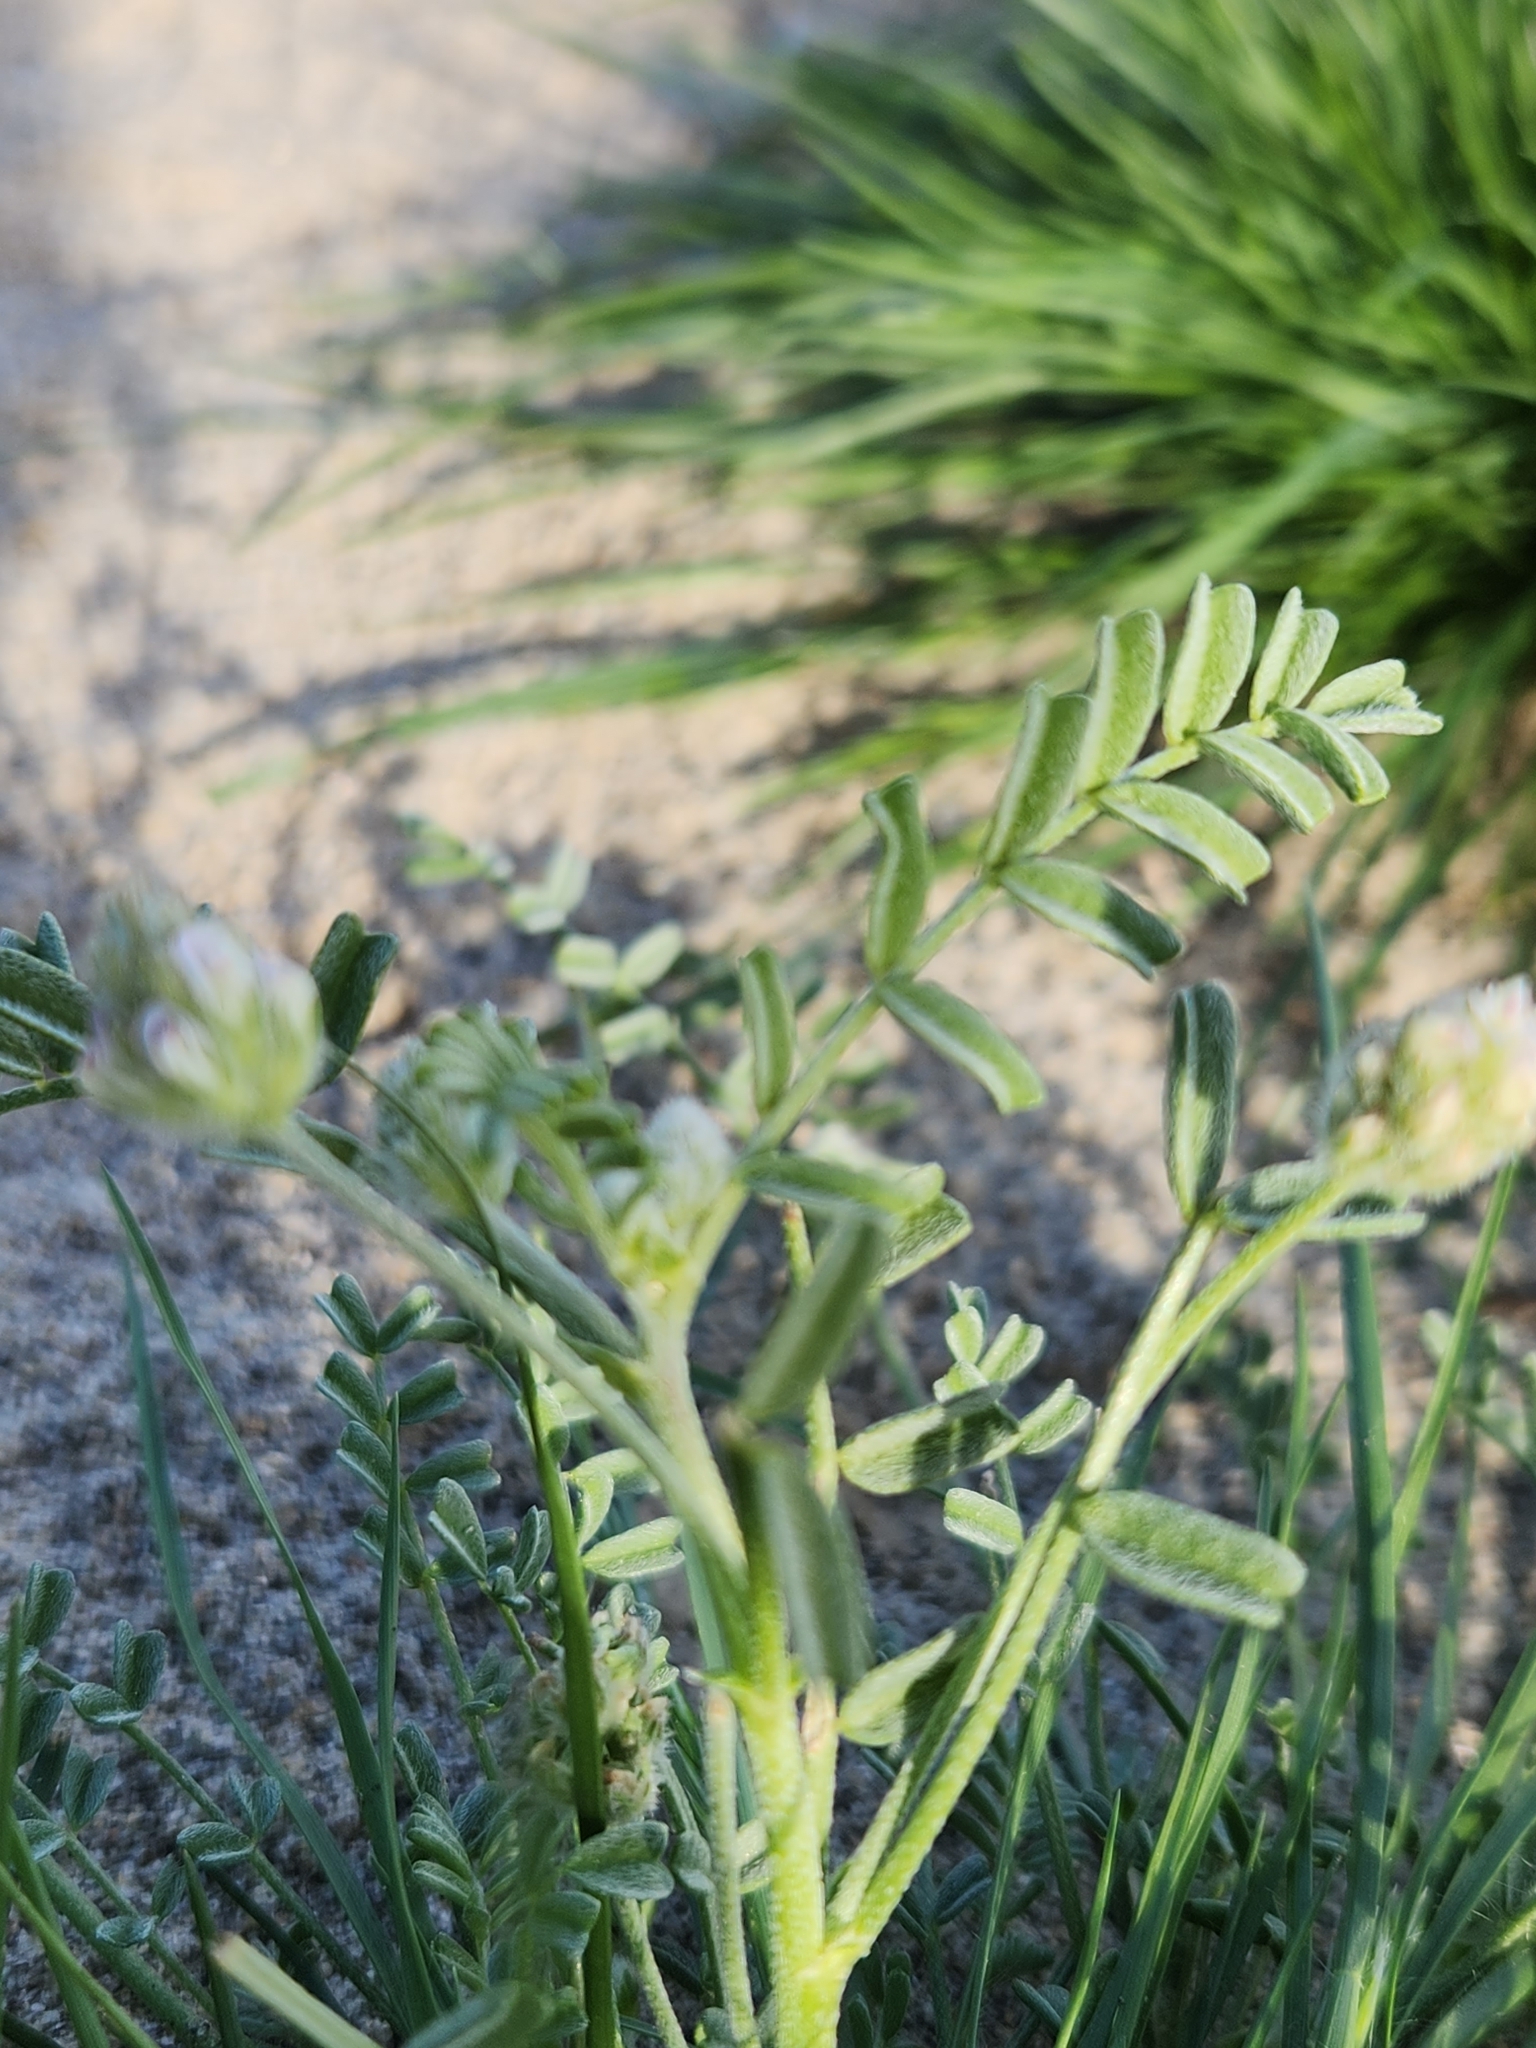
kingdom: Plantae
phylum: Tracheophyta
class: Magnoliopsida
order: Fabales
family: Fabaceae
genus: Astragalus
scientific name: Astragalus didymocarpus
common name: Dwarf white milkvetch
